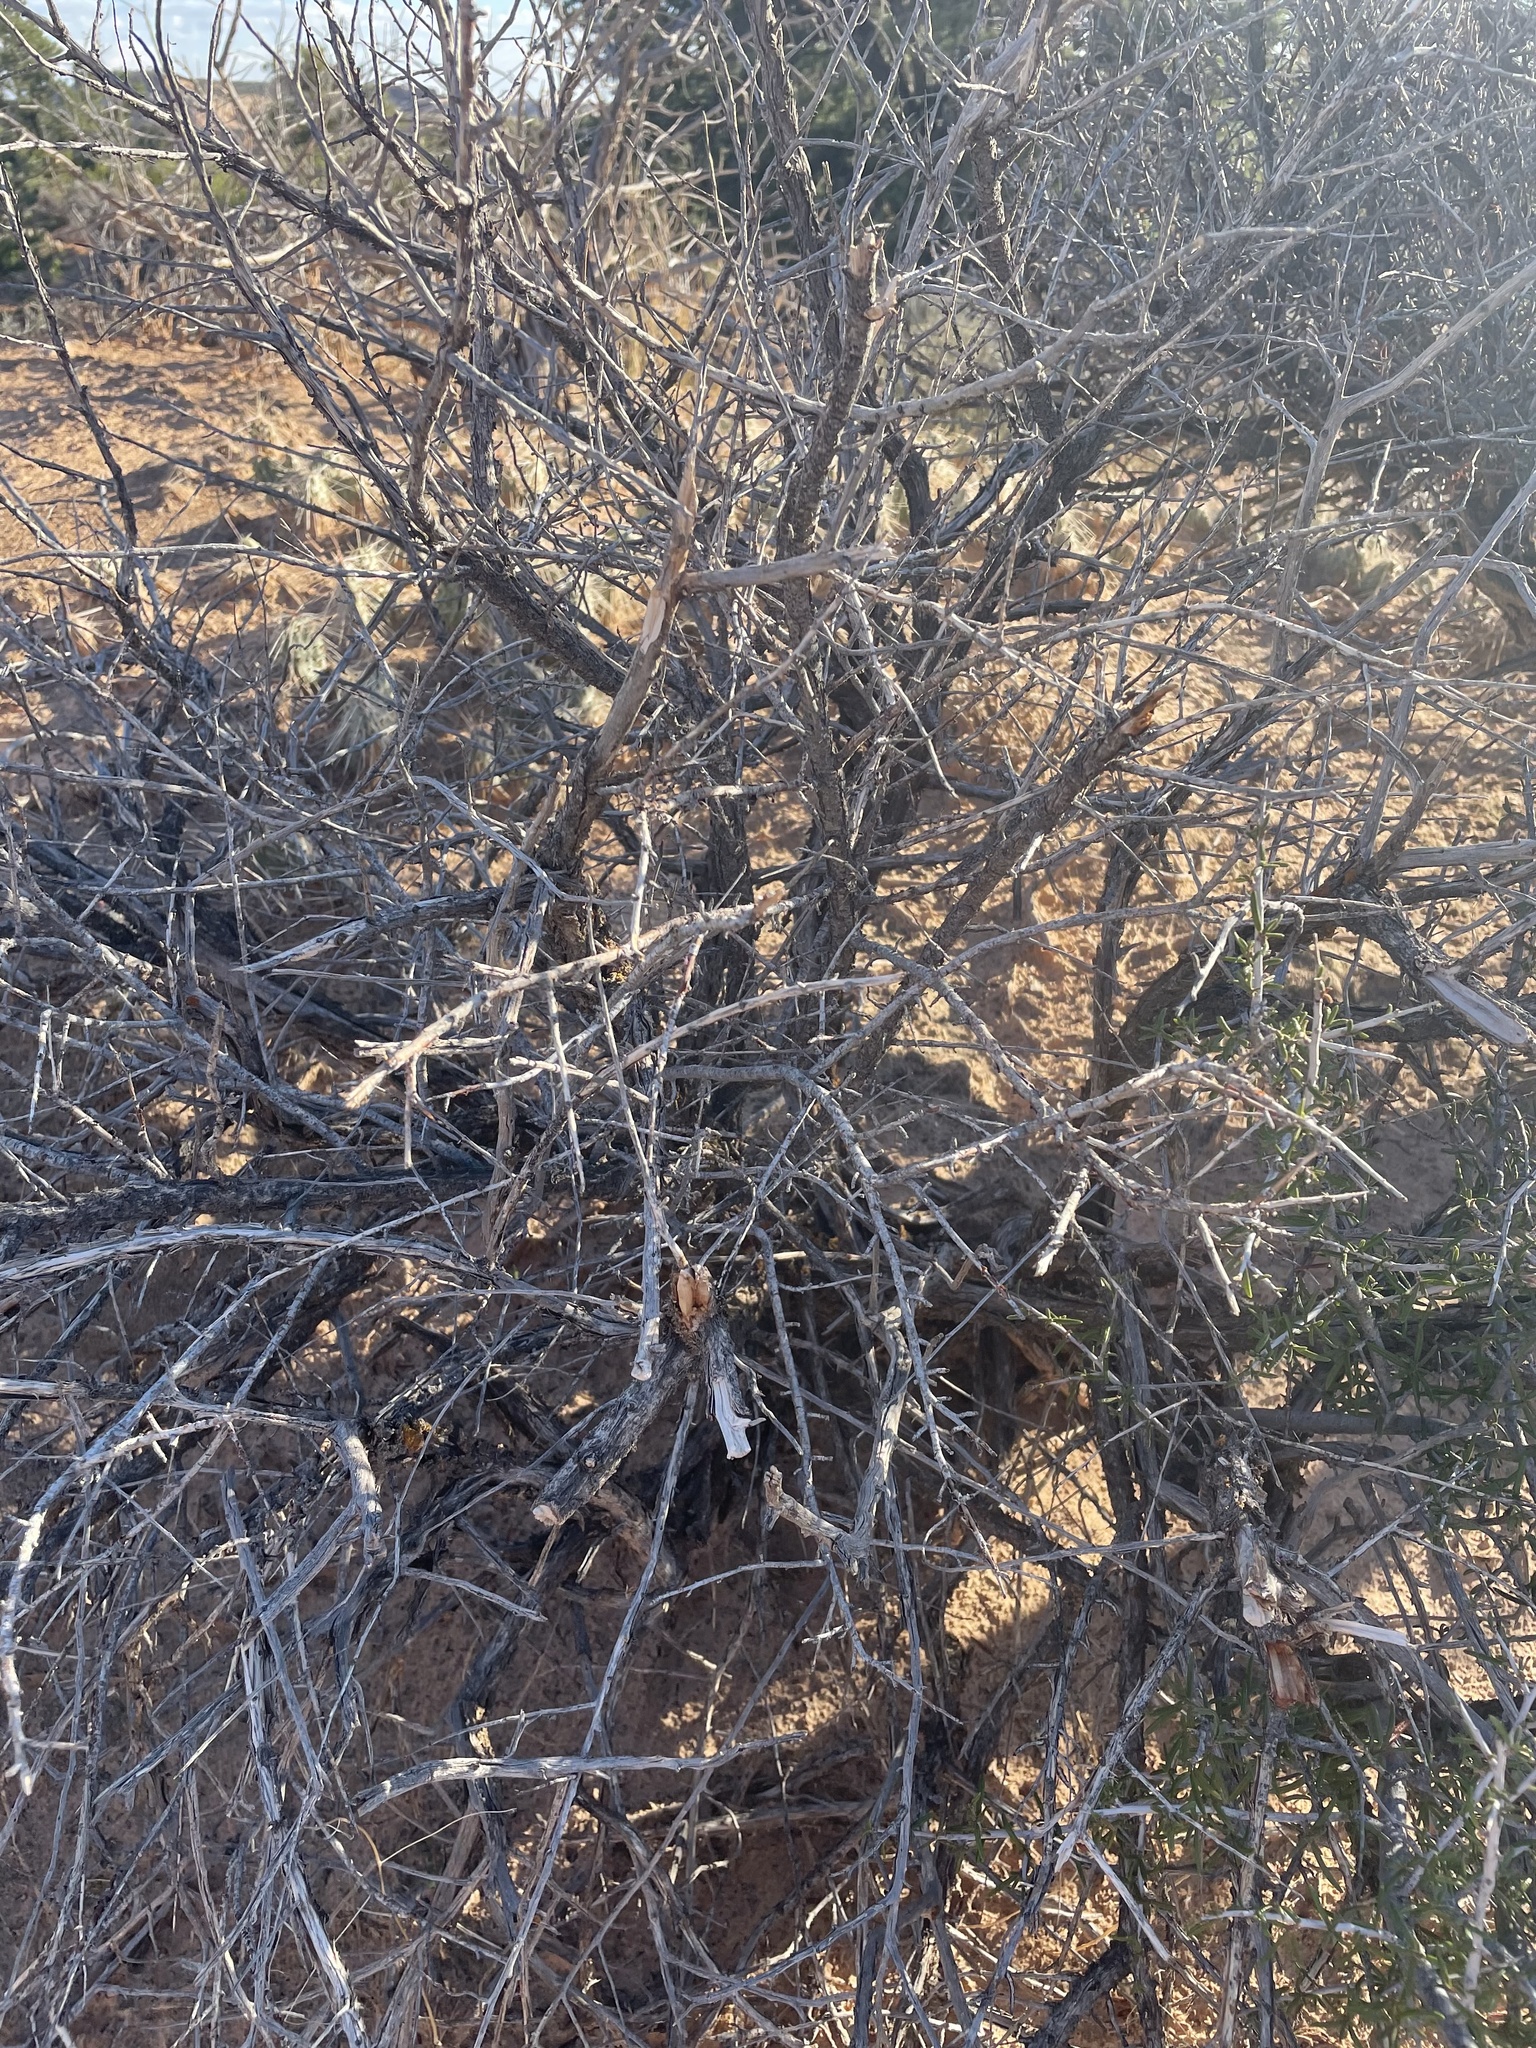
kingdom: Plantae
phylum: Tracheophyta
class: Magnoliopsida
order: Rosales
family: Rosaceae
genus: Cercocarpus
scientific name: Cercocarpus intricatus
